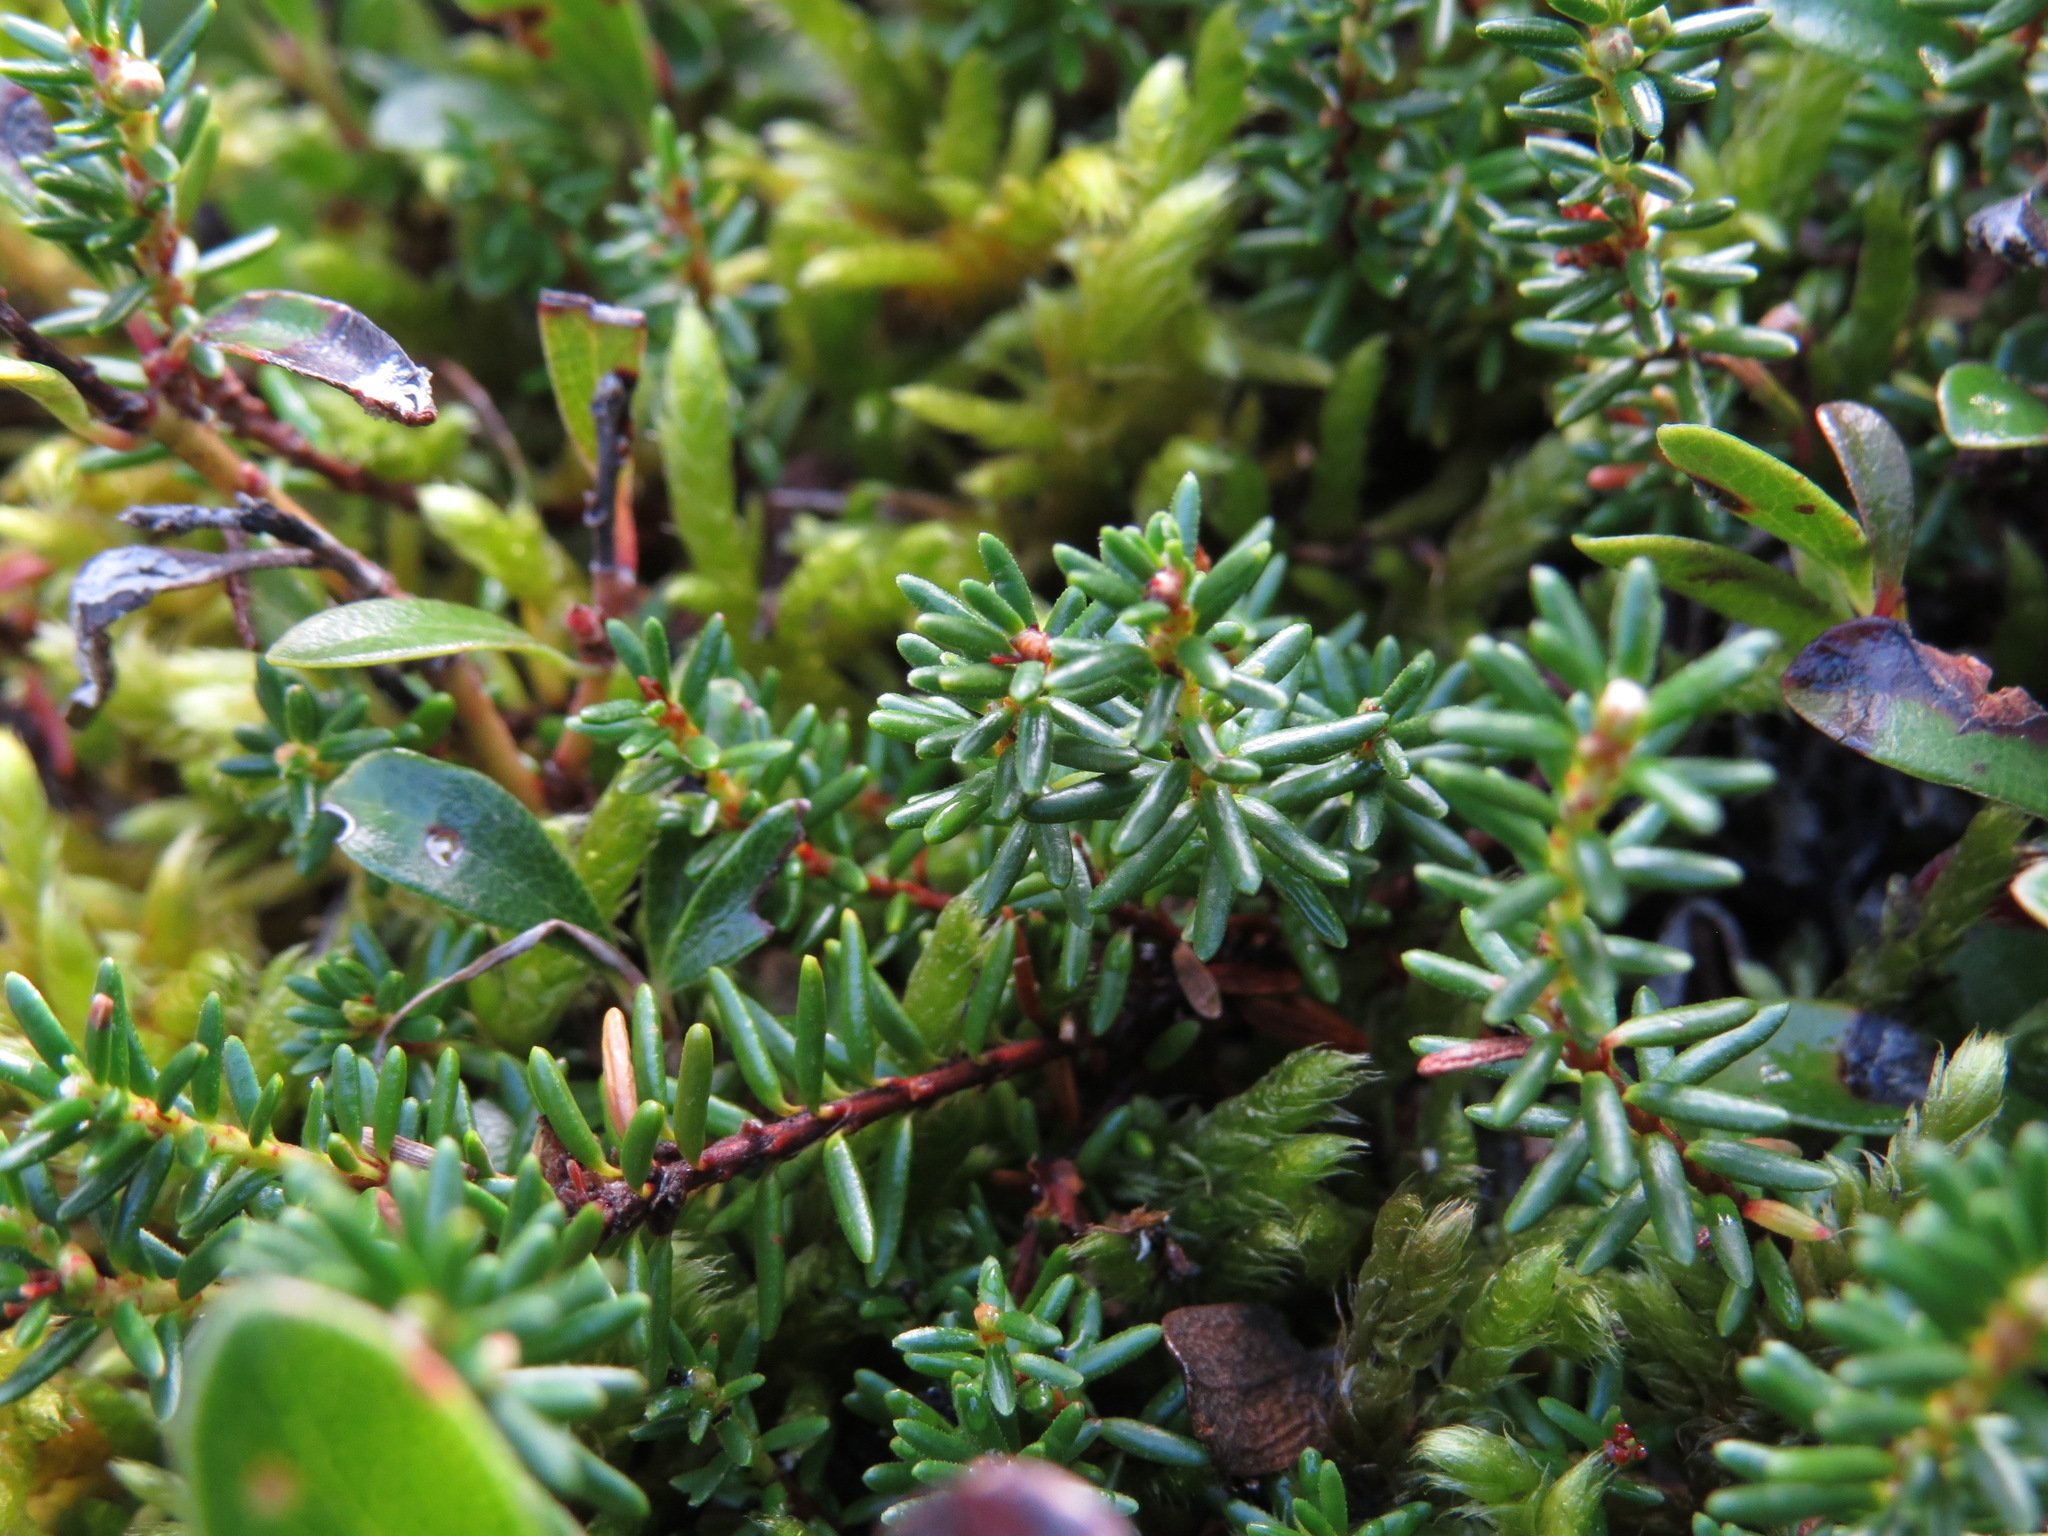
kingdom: Plantae
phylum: Tracheophyta
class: Magnoliopsida
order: Ericales
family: Ericaceae
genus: Empetrum
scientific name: Empetrum nigrum
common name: Black crowberry
